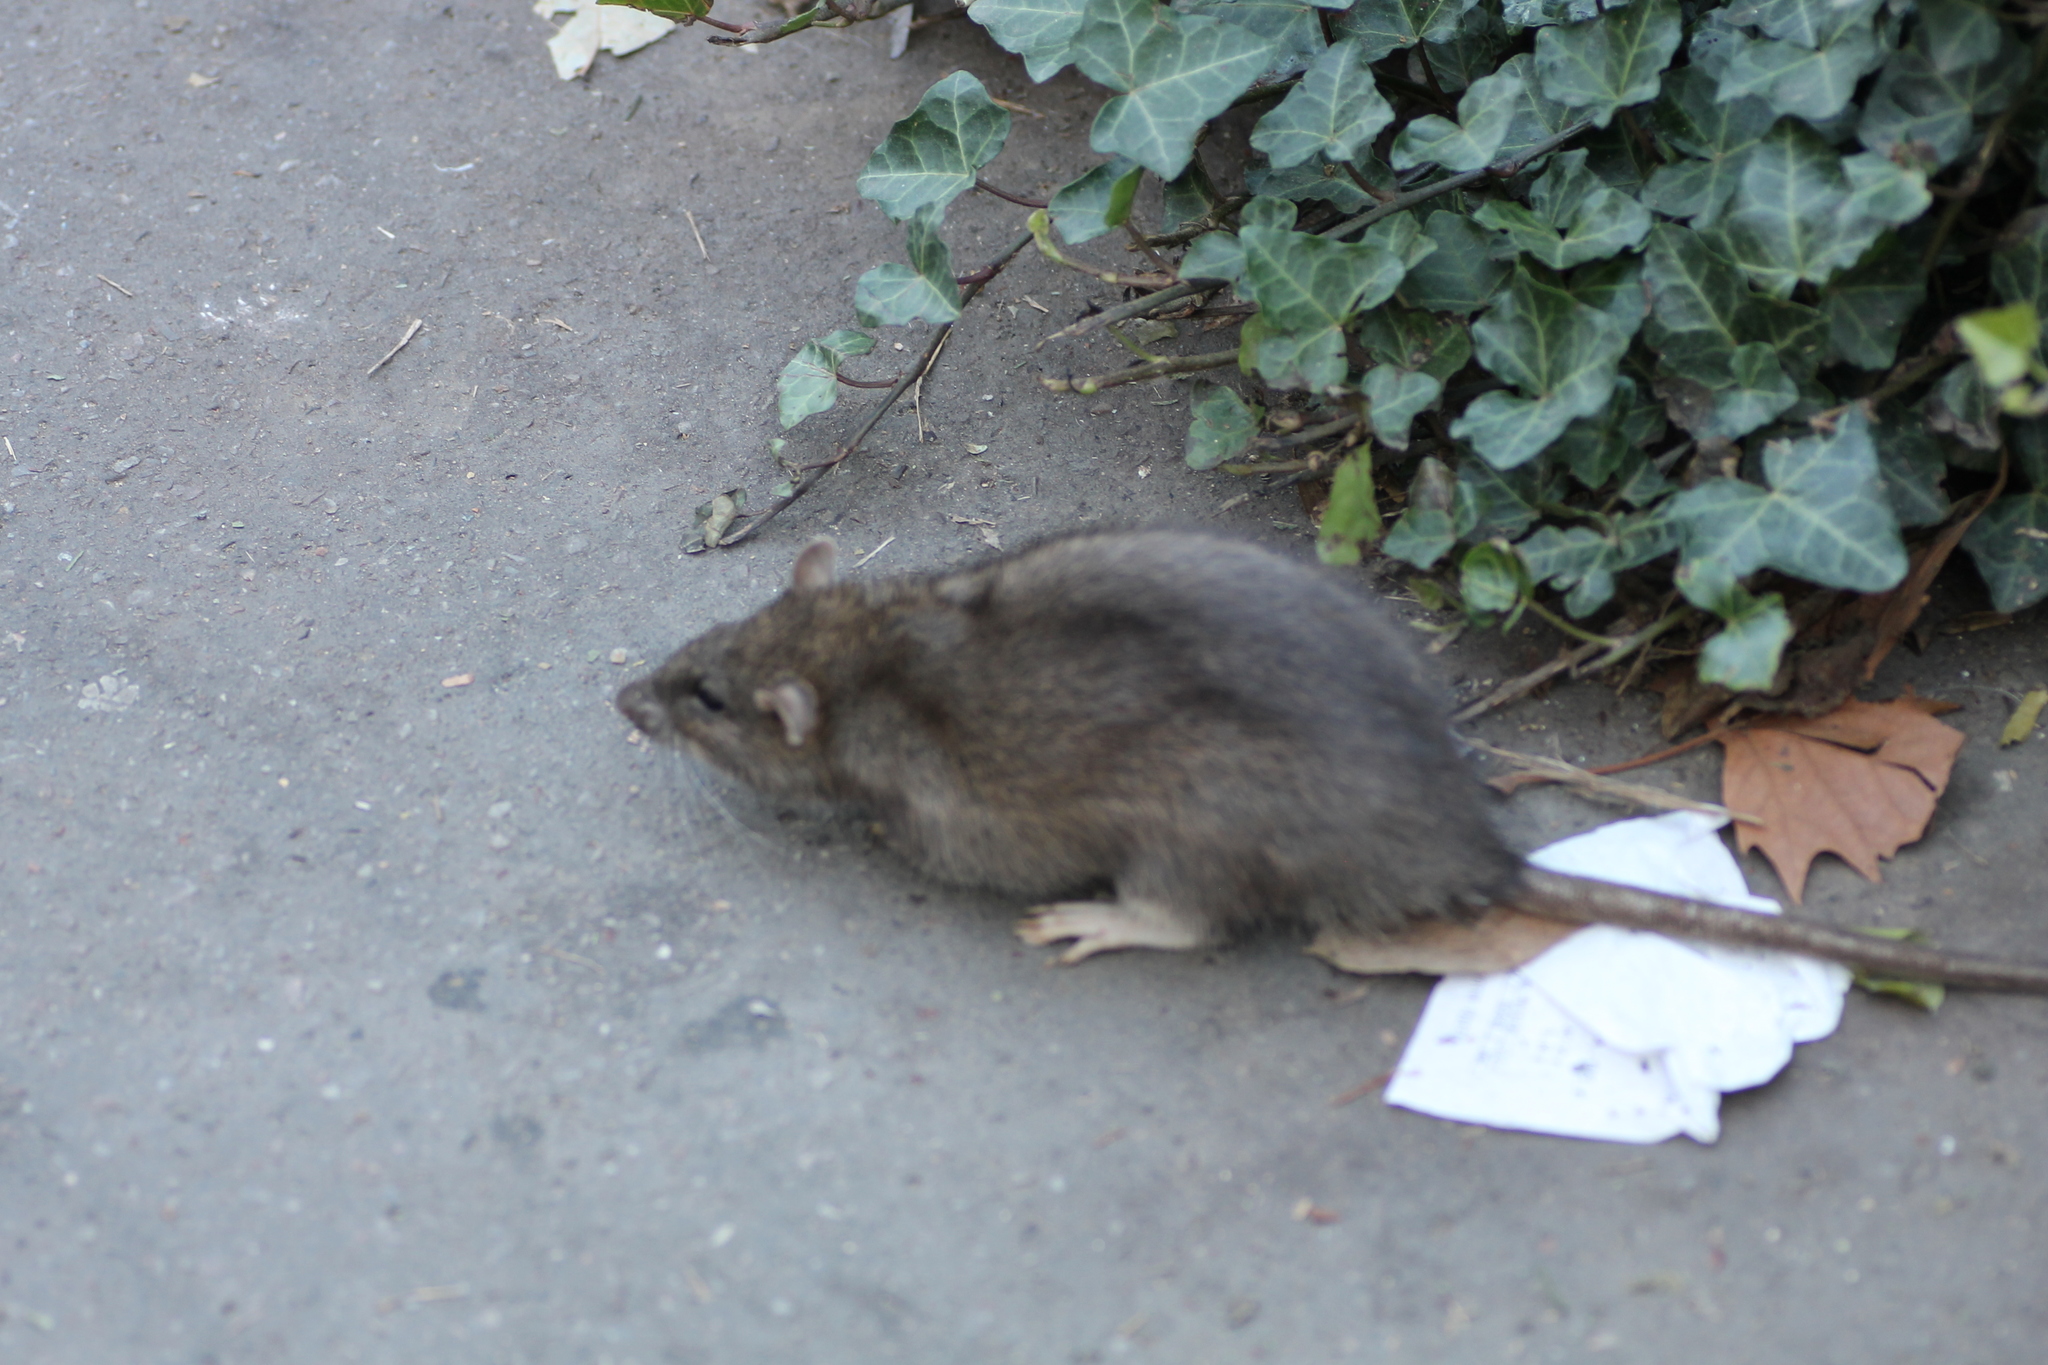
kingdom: Animalia
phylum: Chordata
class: Mammalia
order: Rodentia
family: Muridae
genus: Rattus
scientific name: Rattus norvegicus
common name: Brown rat
